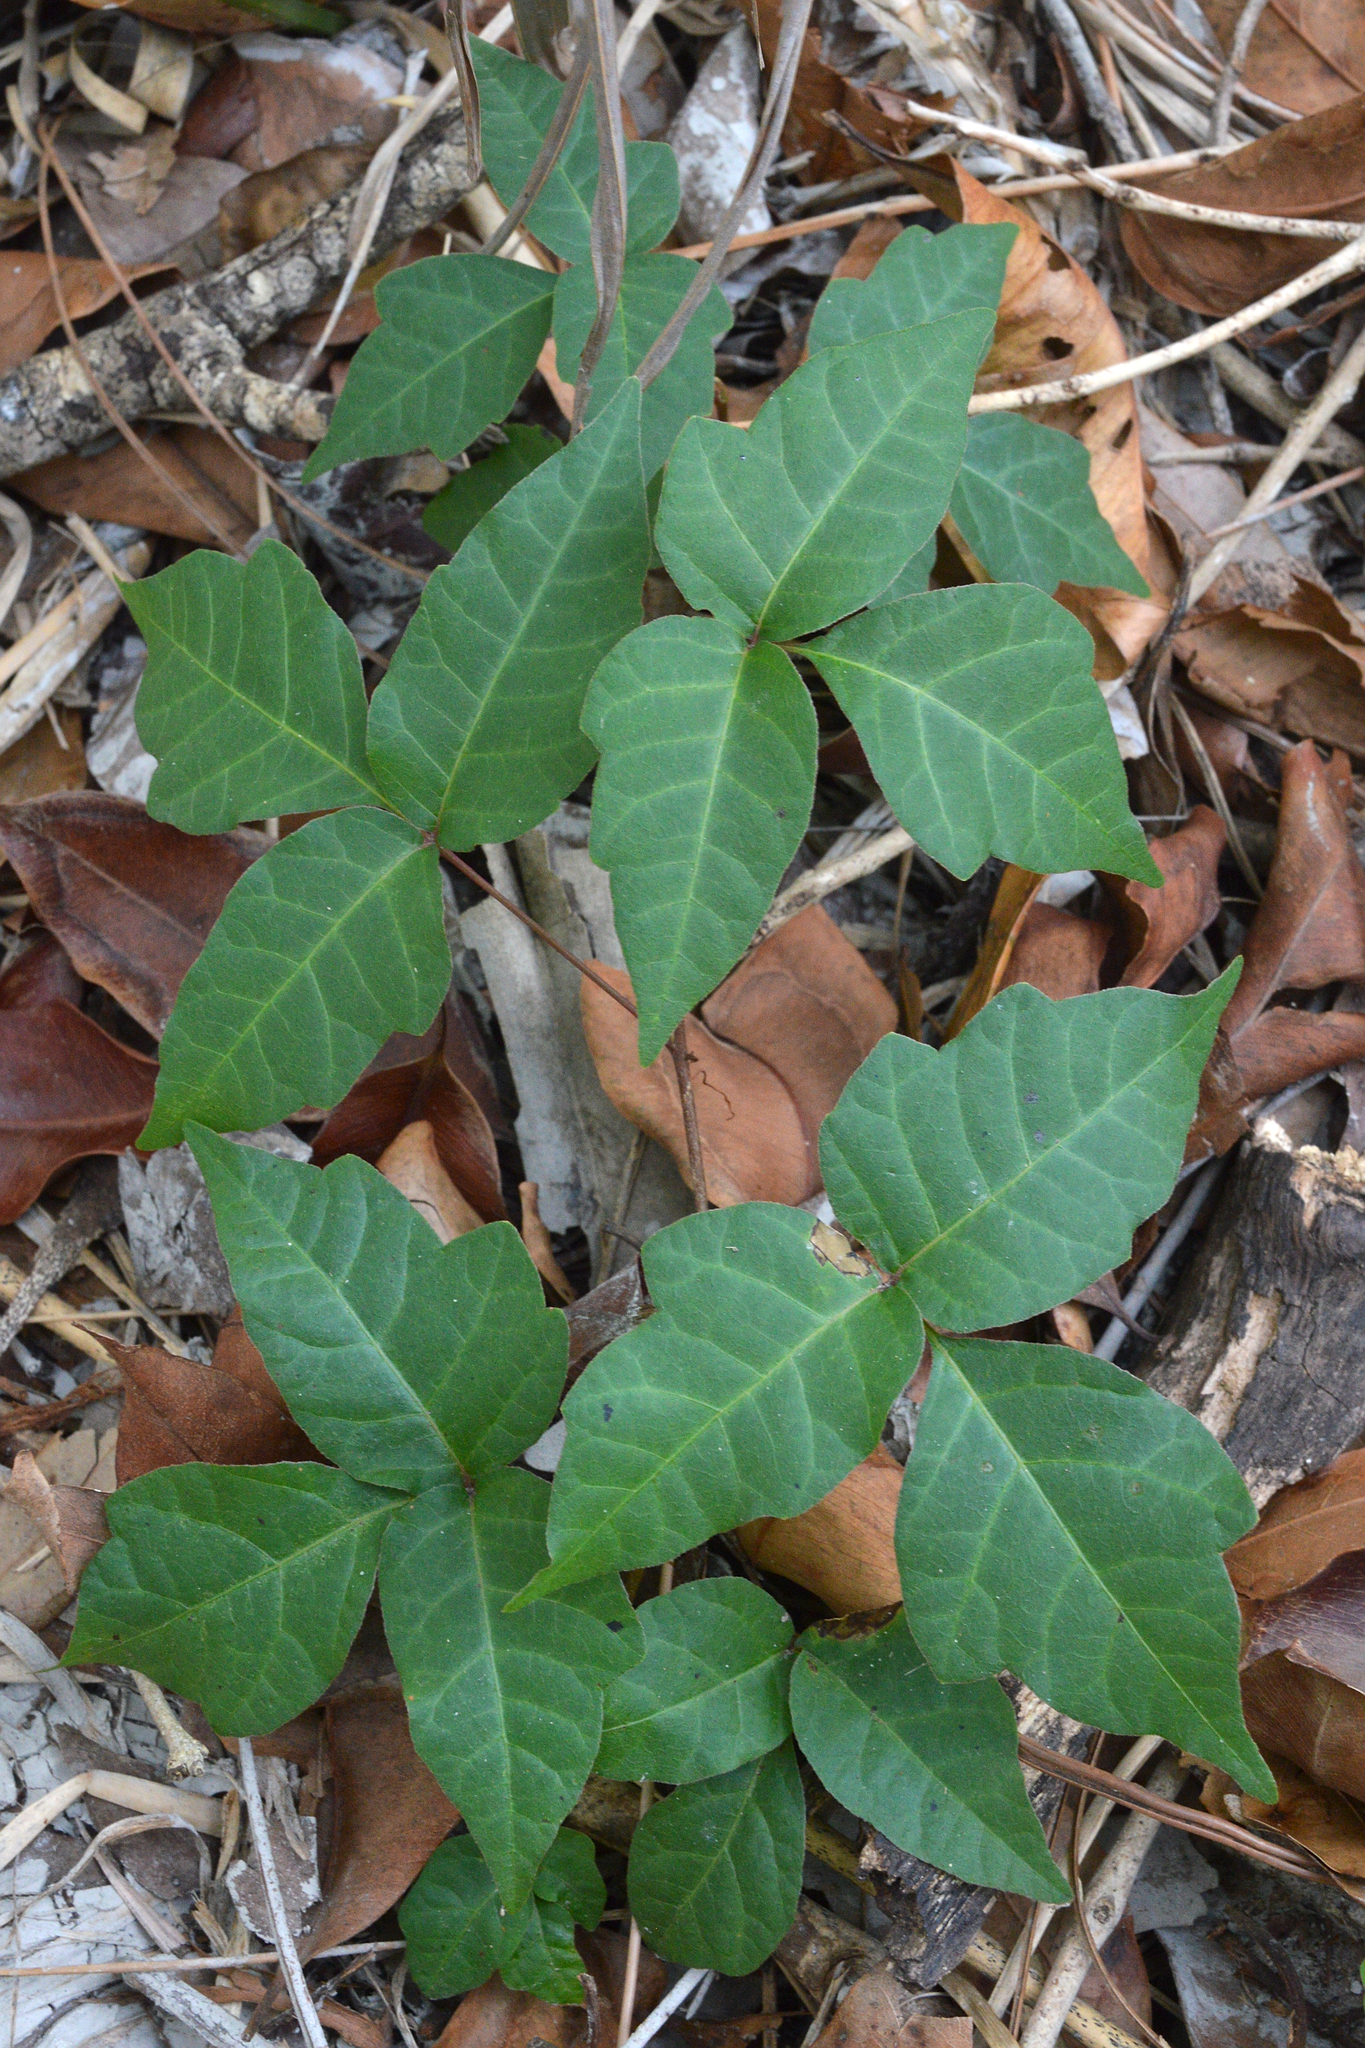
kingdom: Plantae
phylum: Tracheophyta
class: Magnoliopsida
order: Sapindales
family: Anacardiaceae
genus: Toxicodendron
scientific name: Toxicodendron radicans
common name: Poison ivy
